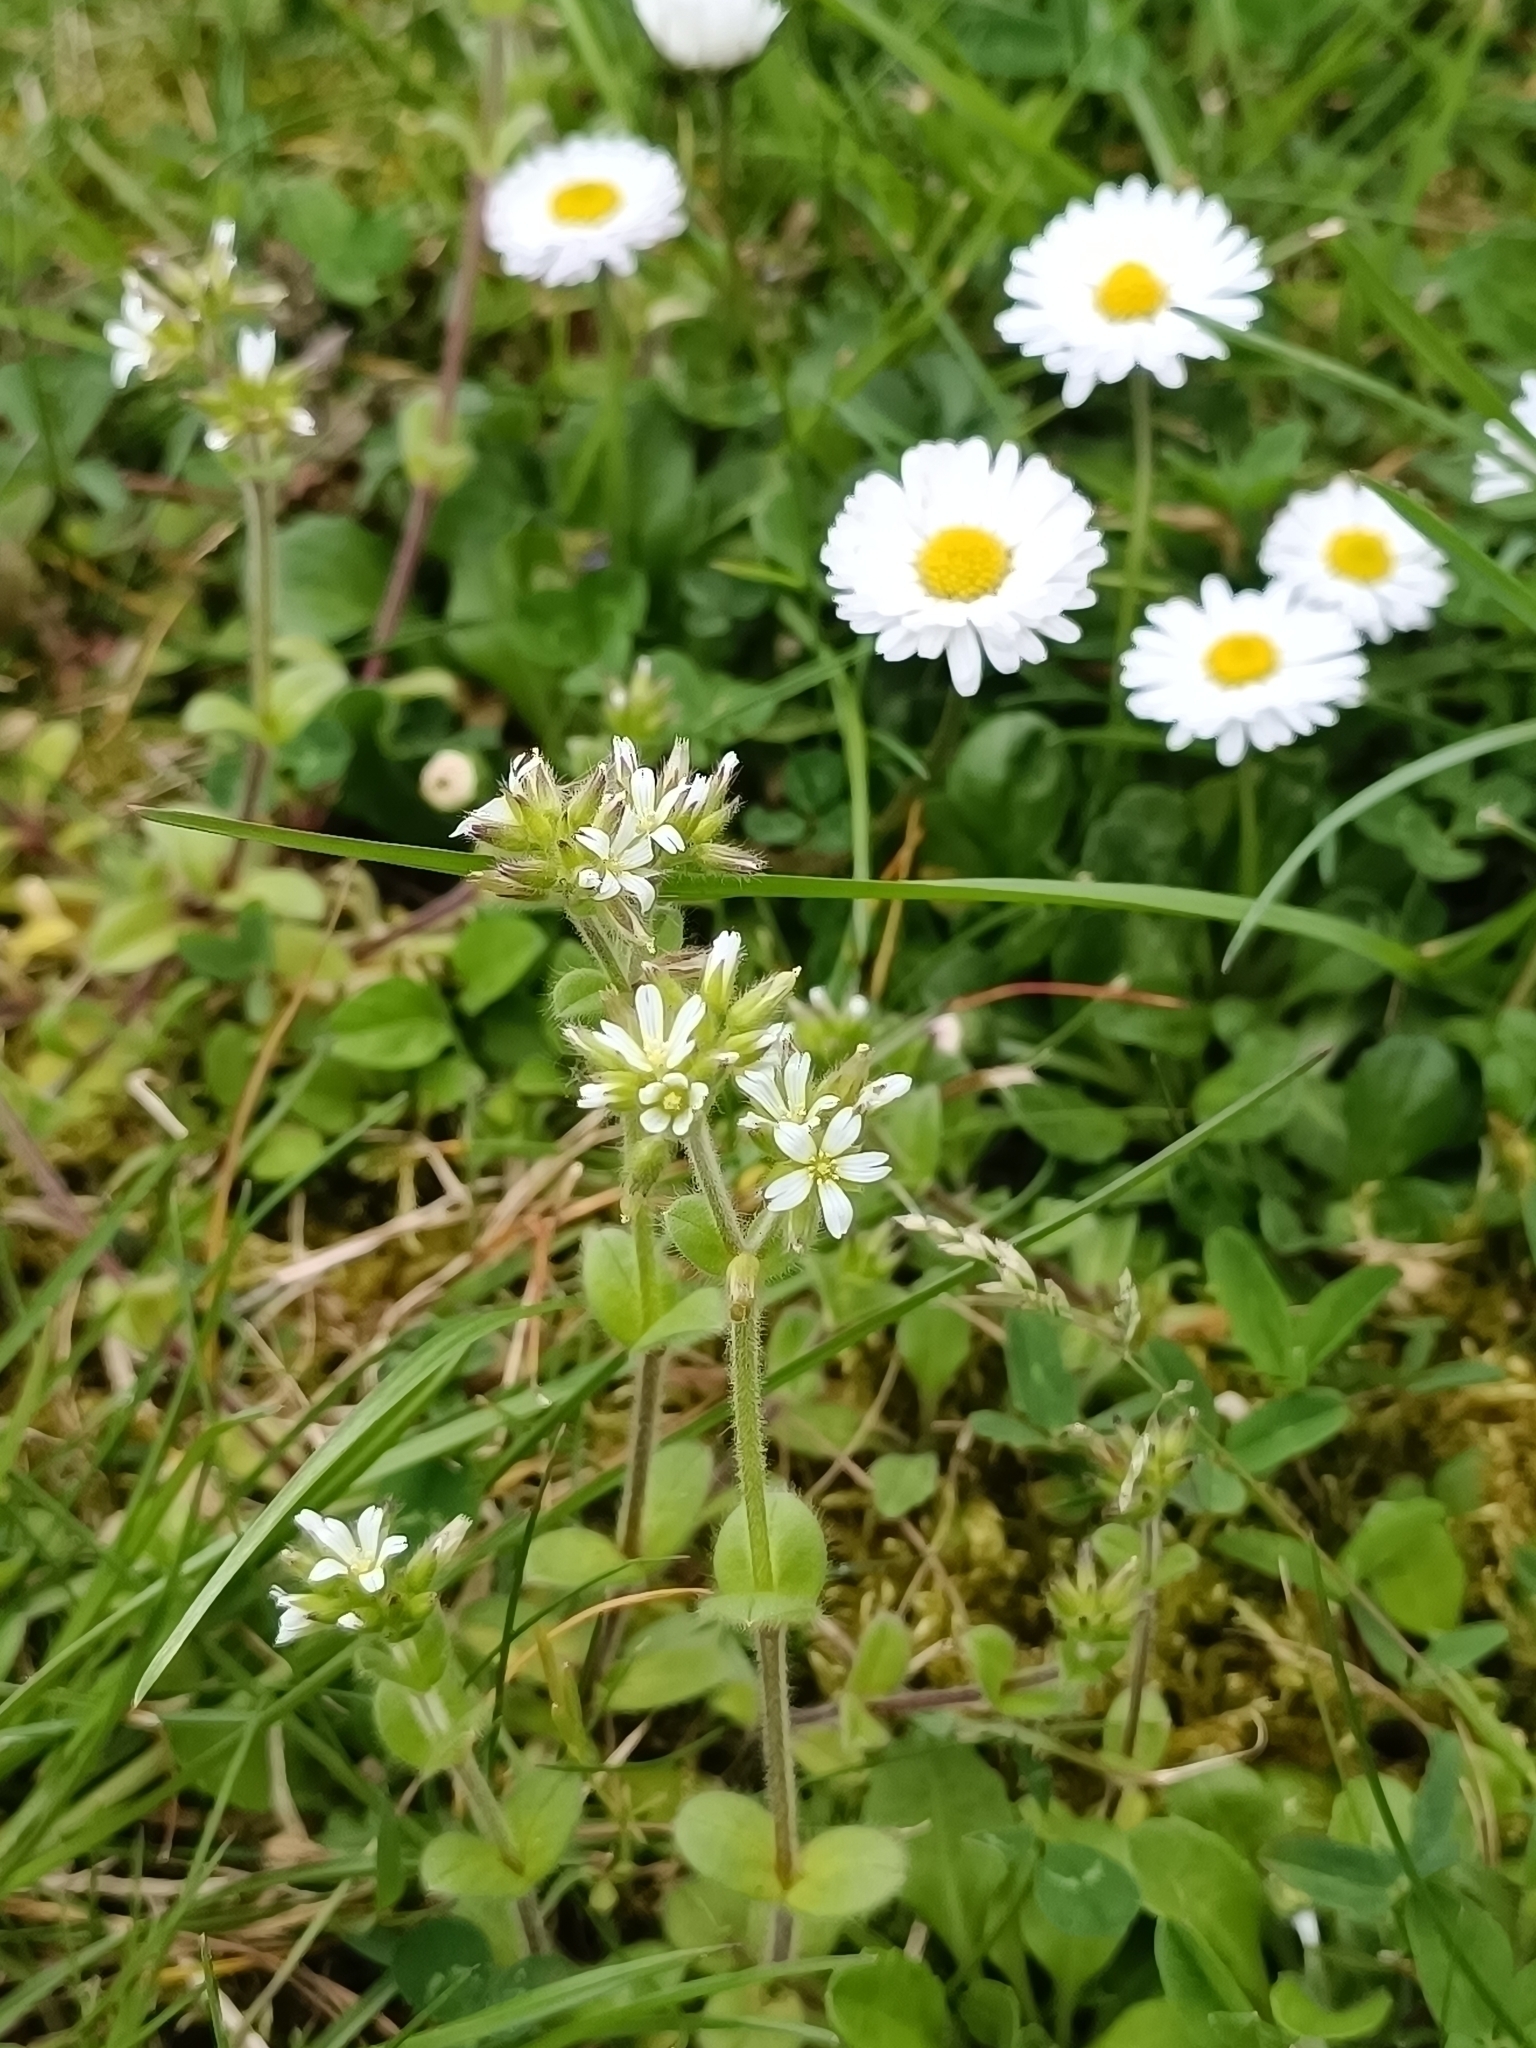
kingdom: Plantae
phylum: Tracheophyta
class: Magnoliopsida
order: Caryophyllales
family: Caryophyllaceae
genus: Cerastium
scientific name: Cerastium glomeratum
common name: Sticky chickweed
